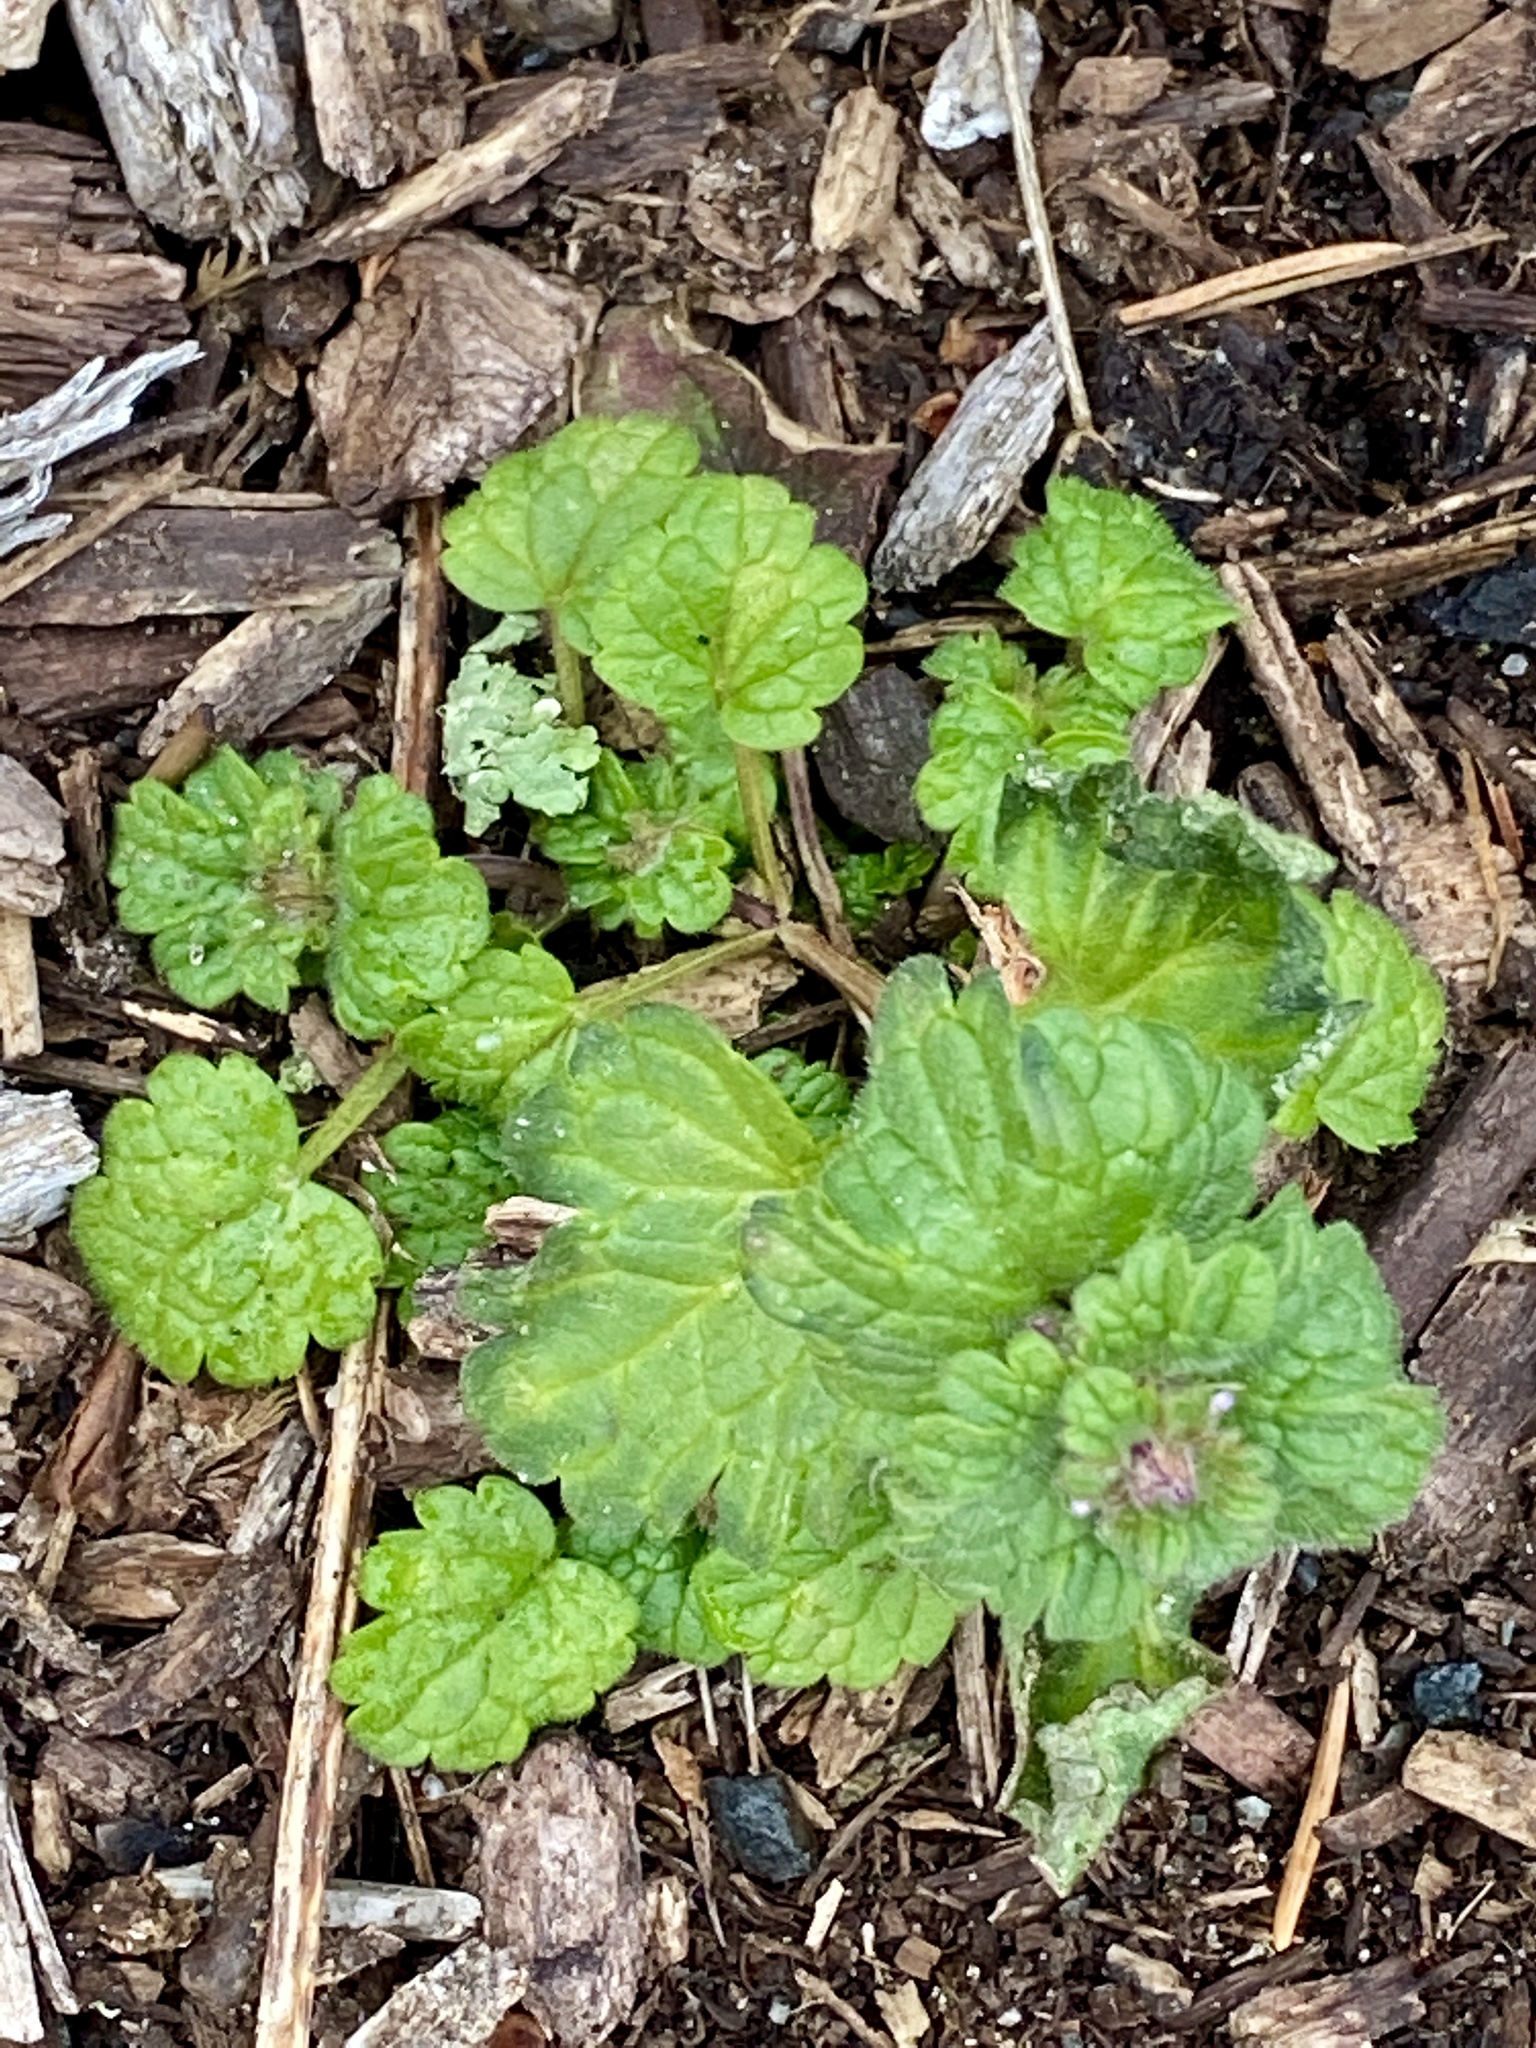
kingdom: Plantae
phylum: Tracheophyta
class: Magnoliopsida
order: Lamiales
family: Lamiaceae
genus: Lamium
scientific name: Lamium amplexicaule
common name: Henbit dead-nettle
